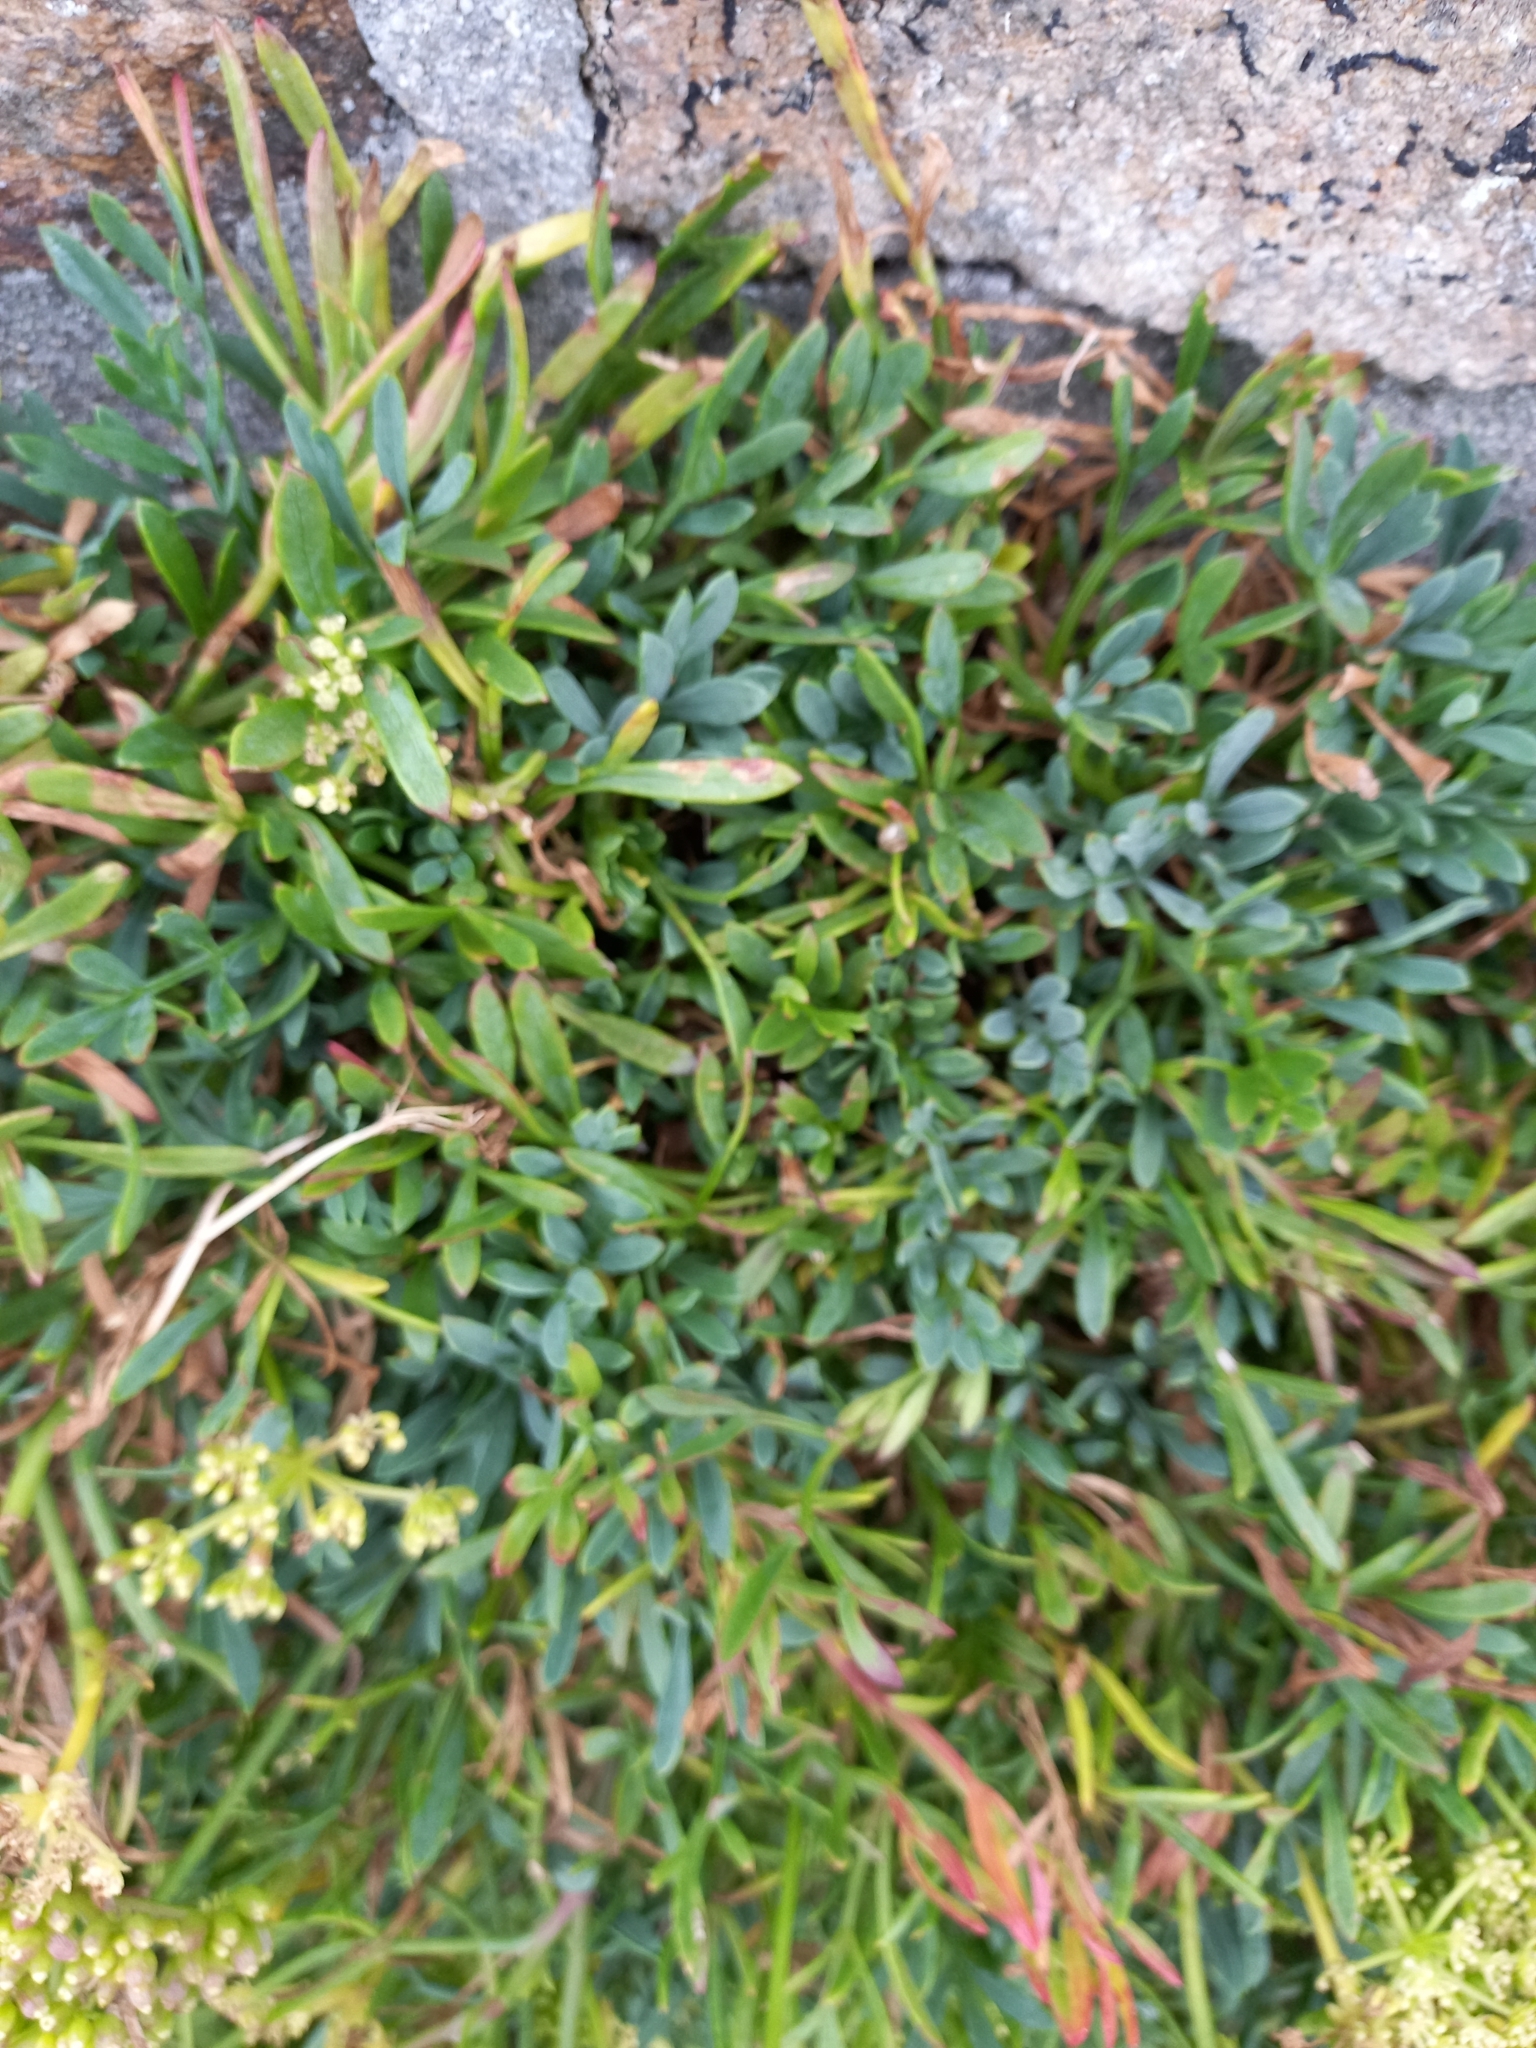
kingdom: Plantae
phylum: Tracheophyta
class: Magnoliopsida
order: Apiales
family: Apiaceae
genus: Crithmum
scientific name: Crithmum maritimum
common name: Rock samphire
